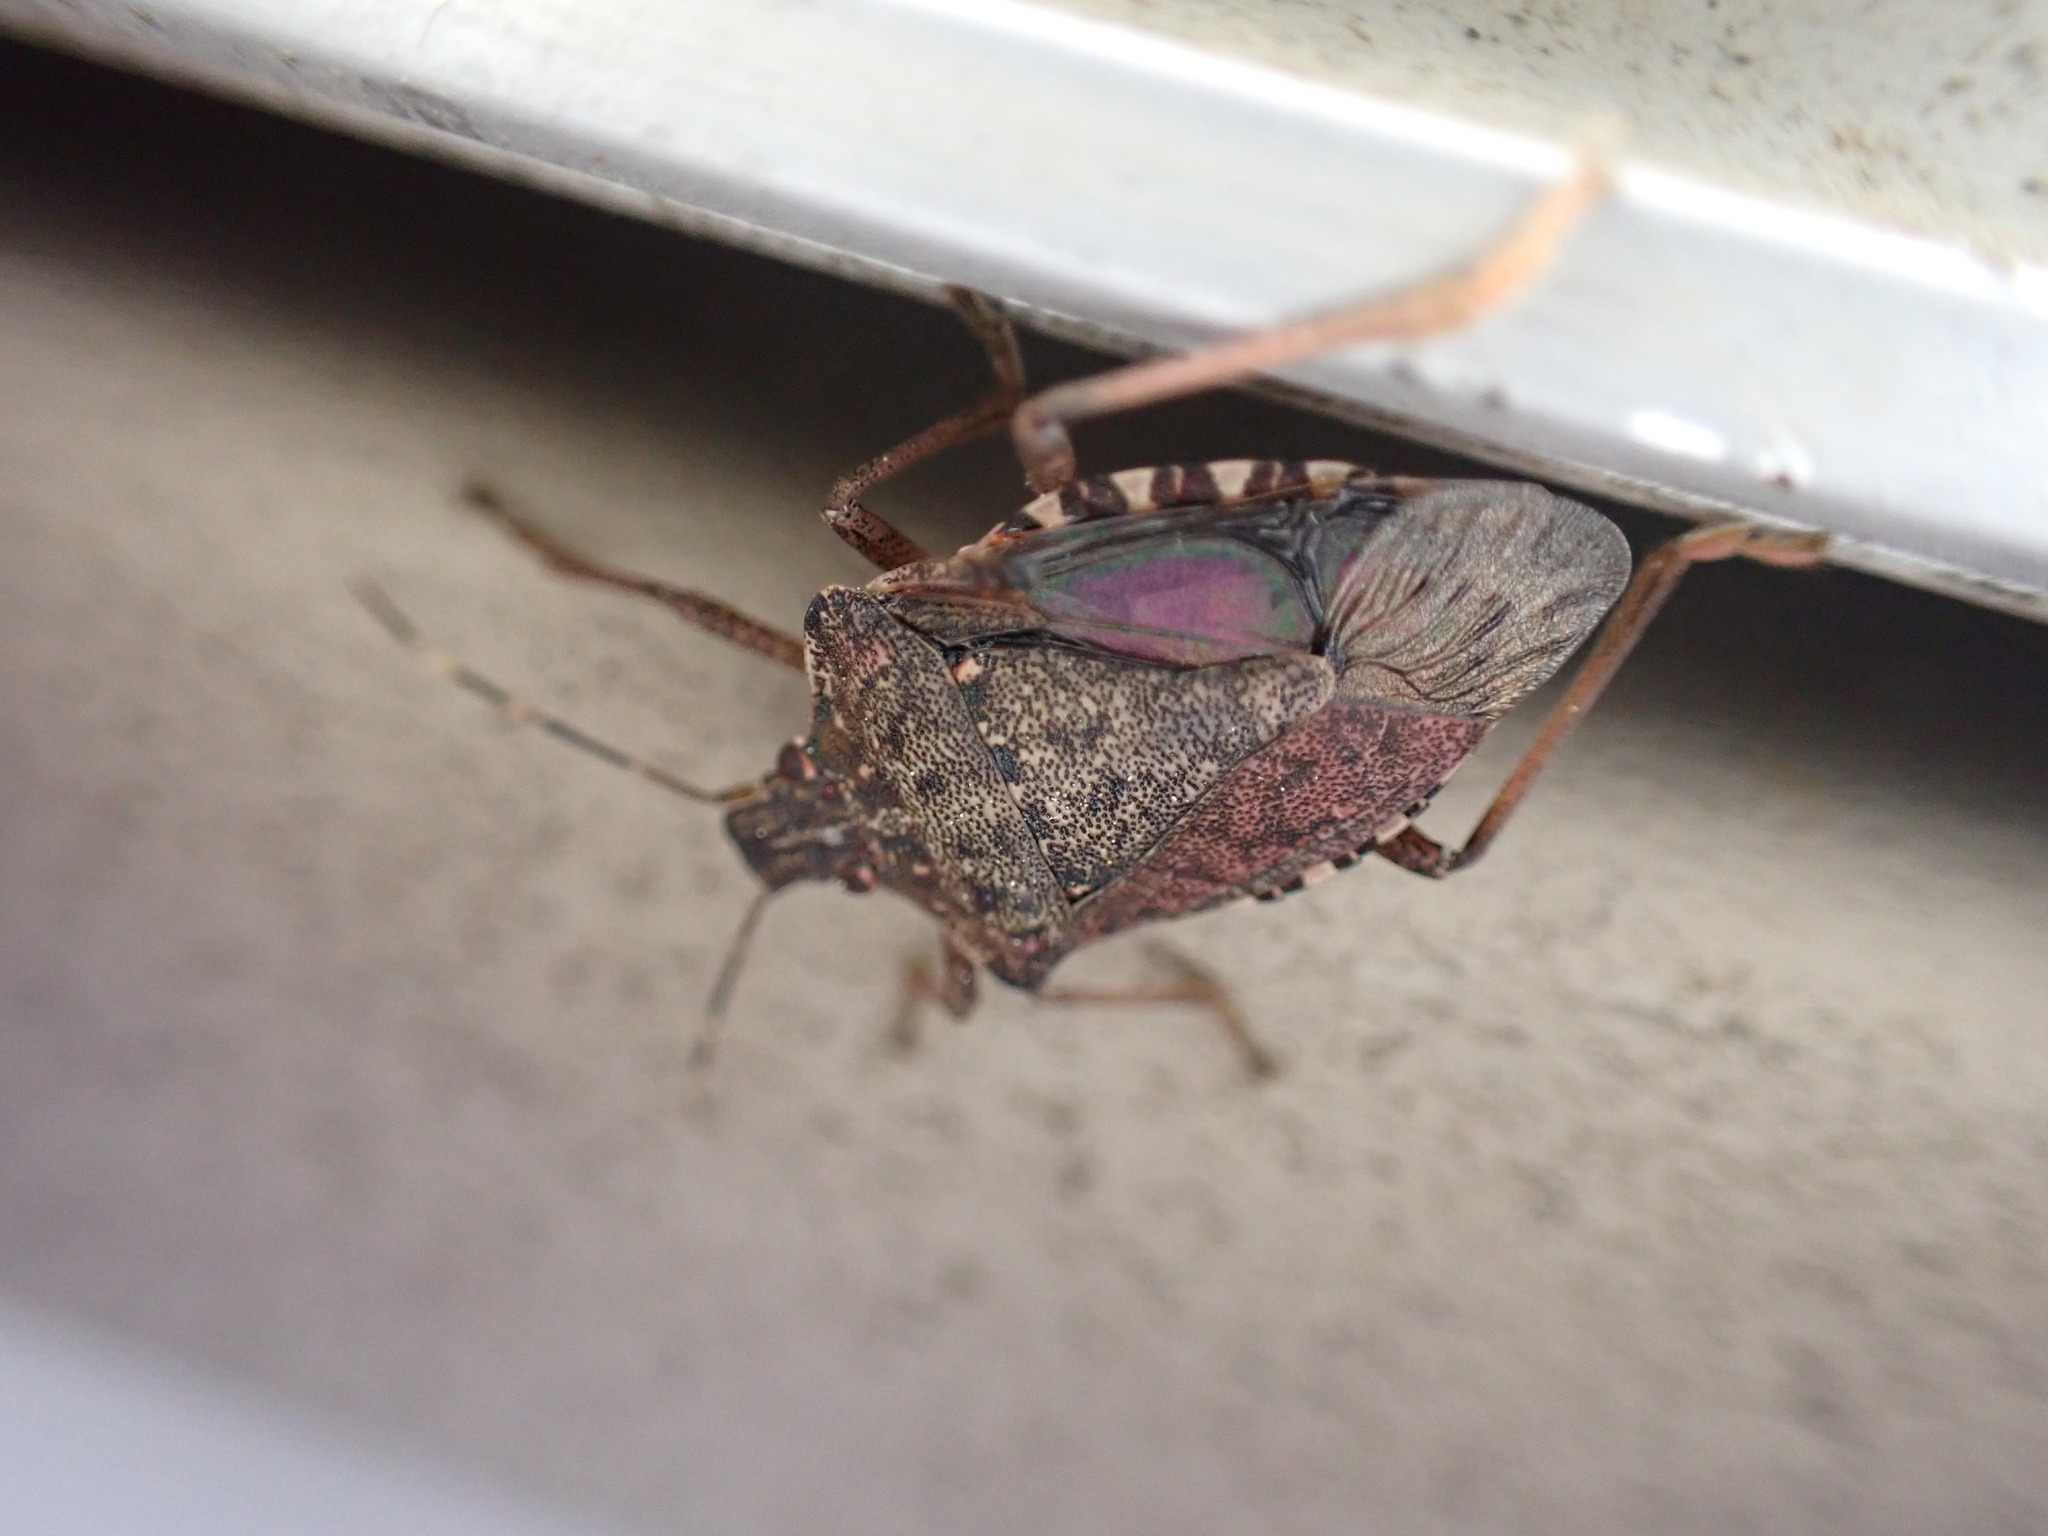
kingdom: Animalia
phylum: Arthropoda
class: Insecta
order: Hemiptera
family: Pentatomidae
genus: Halyomorpha
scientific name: Halyomorpha halys
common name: Brown marmorated stink bug
